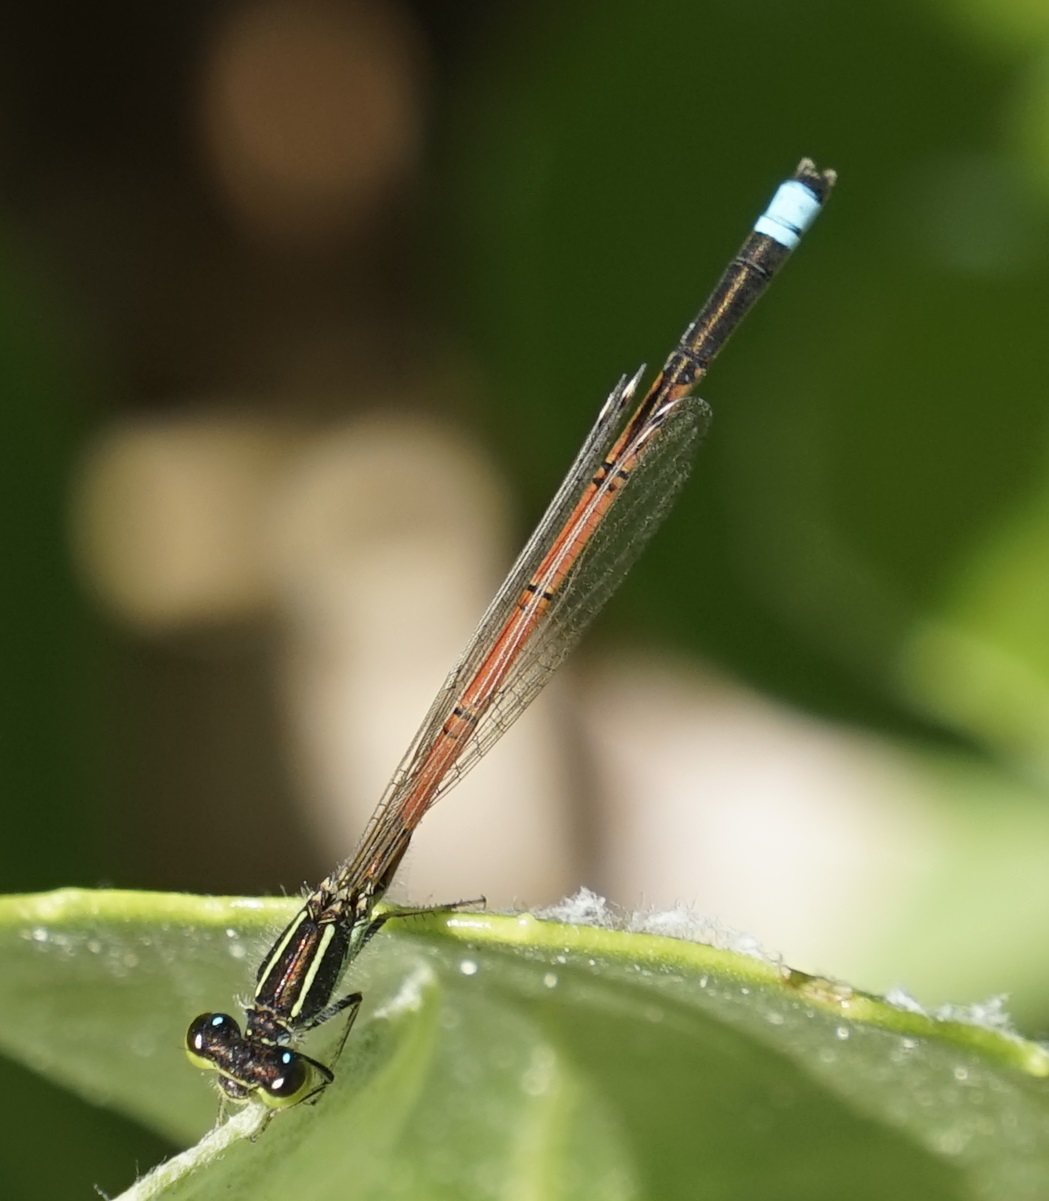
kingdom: Animalia
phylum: Arthropoda
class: Insecta
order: Odonata
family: Coenagrionidae
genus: Ischnura
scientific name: Ischnura aurora
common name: Gossamer damselfly
